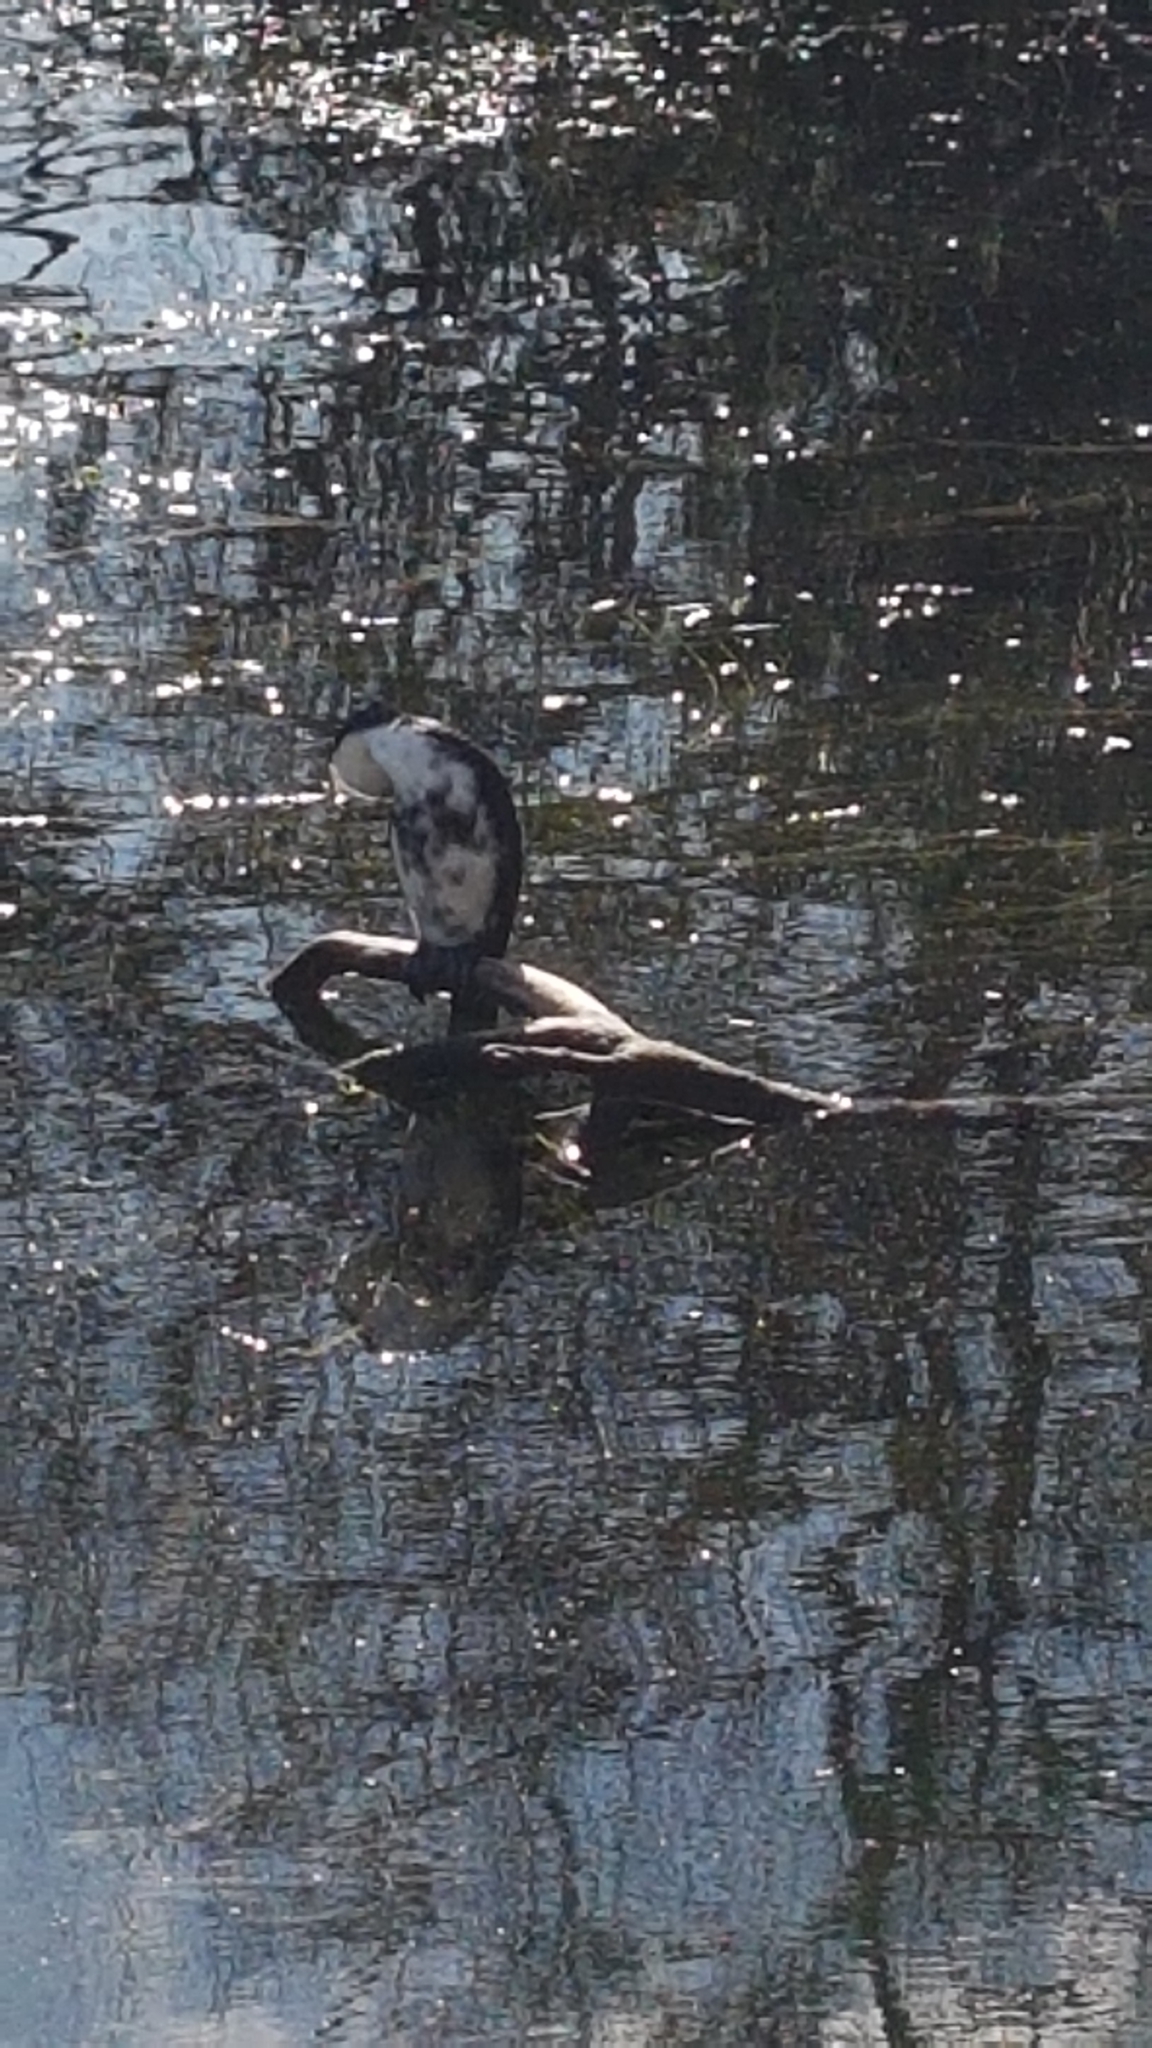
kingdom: Animalia
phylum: Chordata
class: Aves
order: Suliformes
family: Phalacrocoracidae
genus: Microcarbo
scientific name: Microcarbo melanoleucos
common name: Little pied cormorant
